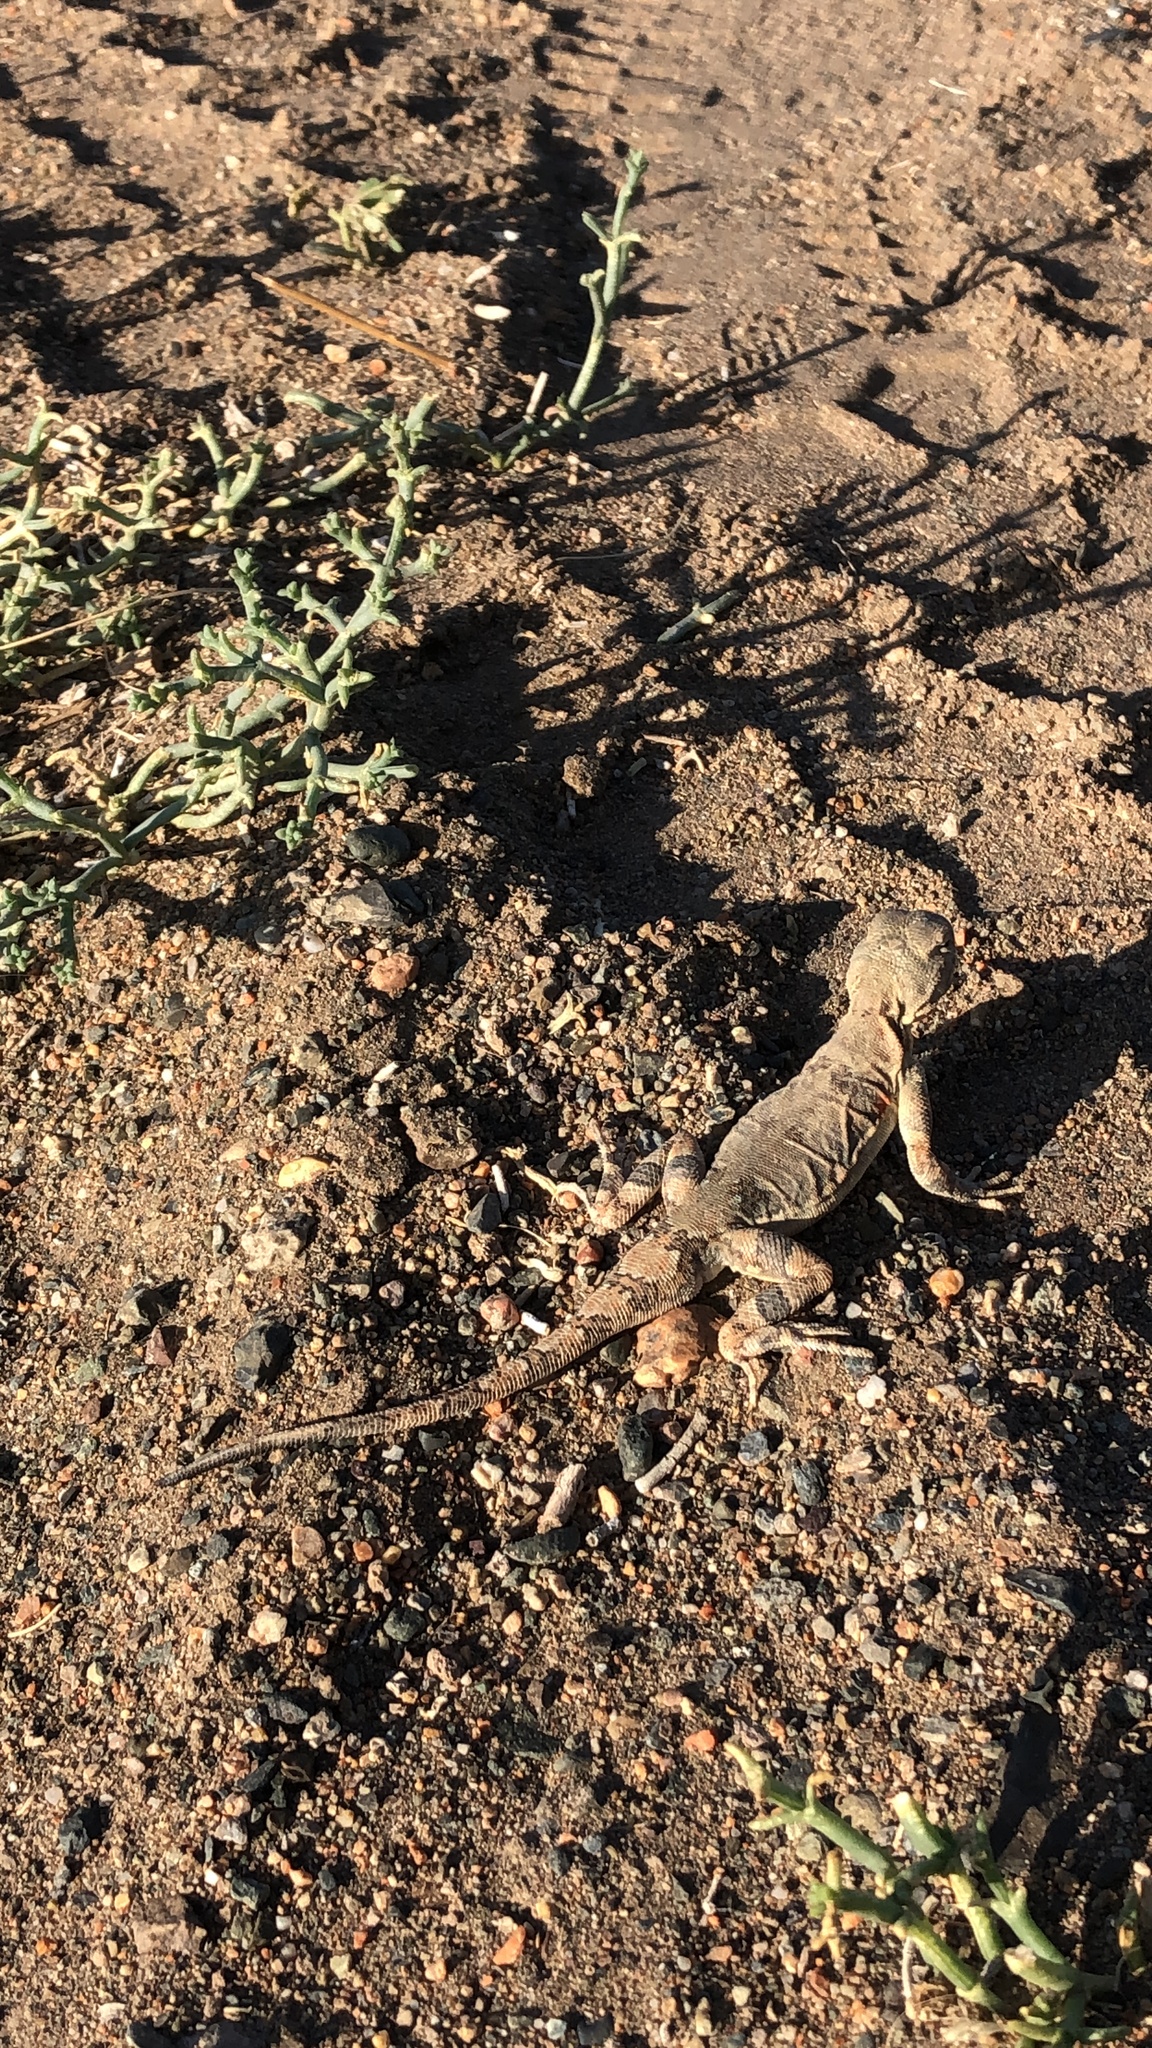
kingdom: Animalia
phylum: Chordata
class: Squamata
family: Agamidae
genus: Phrynocephalus
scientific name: Phrynocephalus versicolor
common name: Tuvan toad-headed agama
